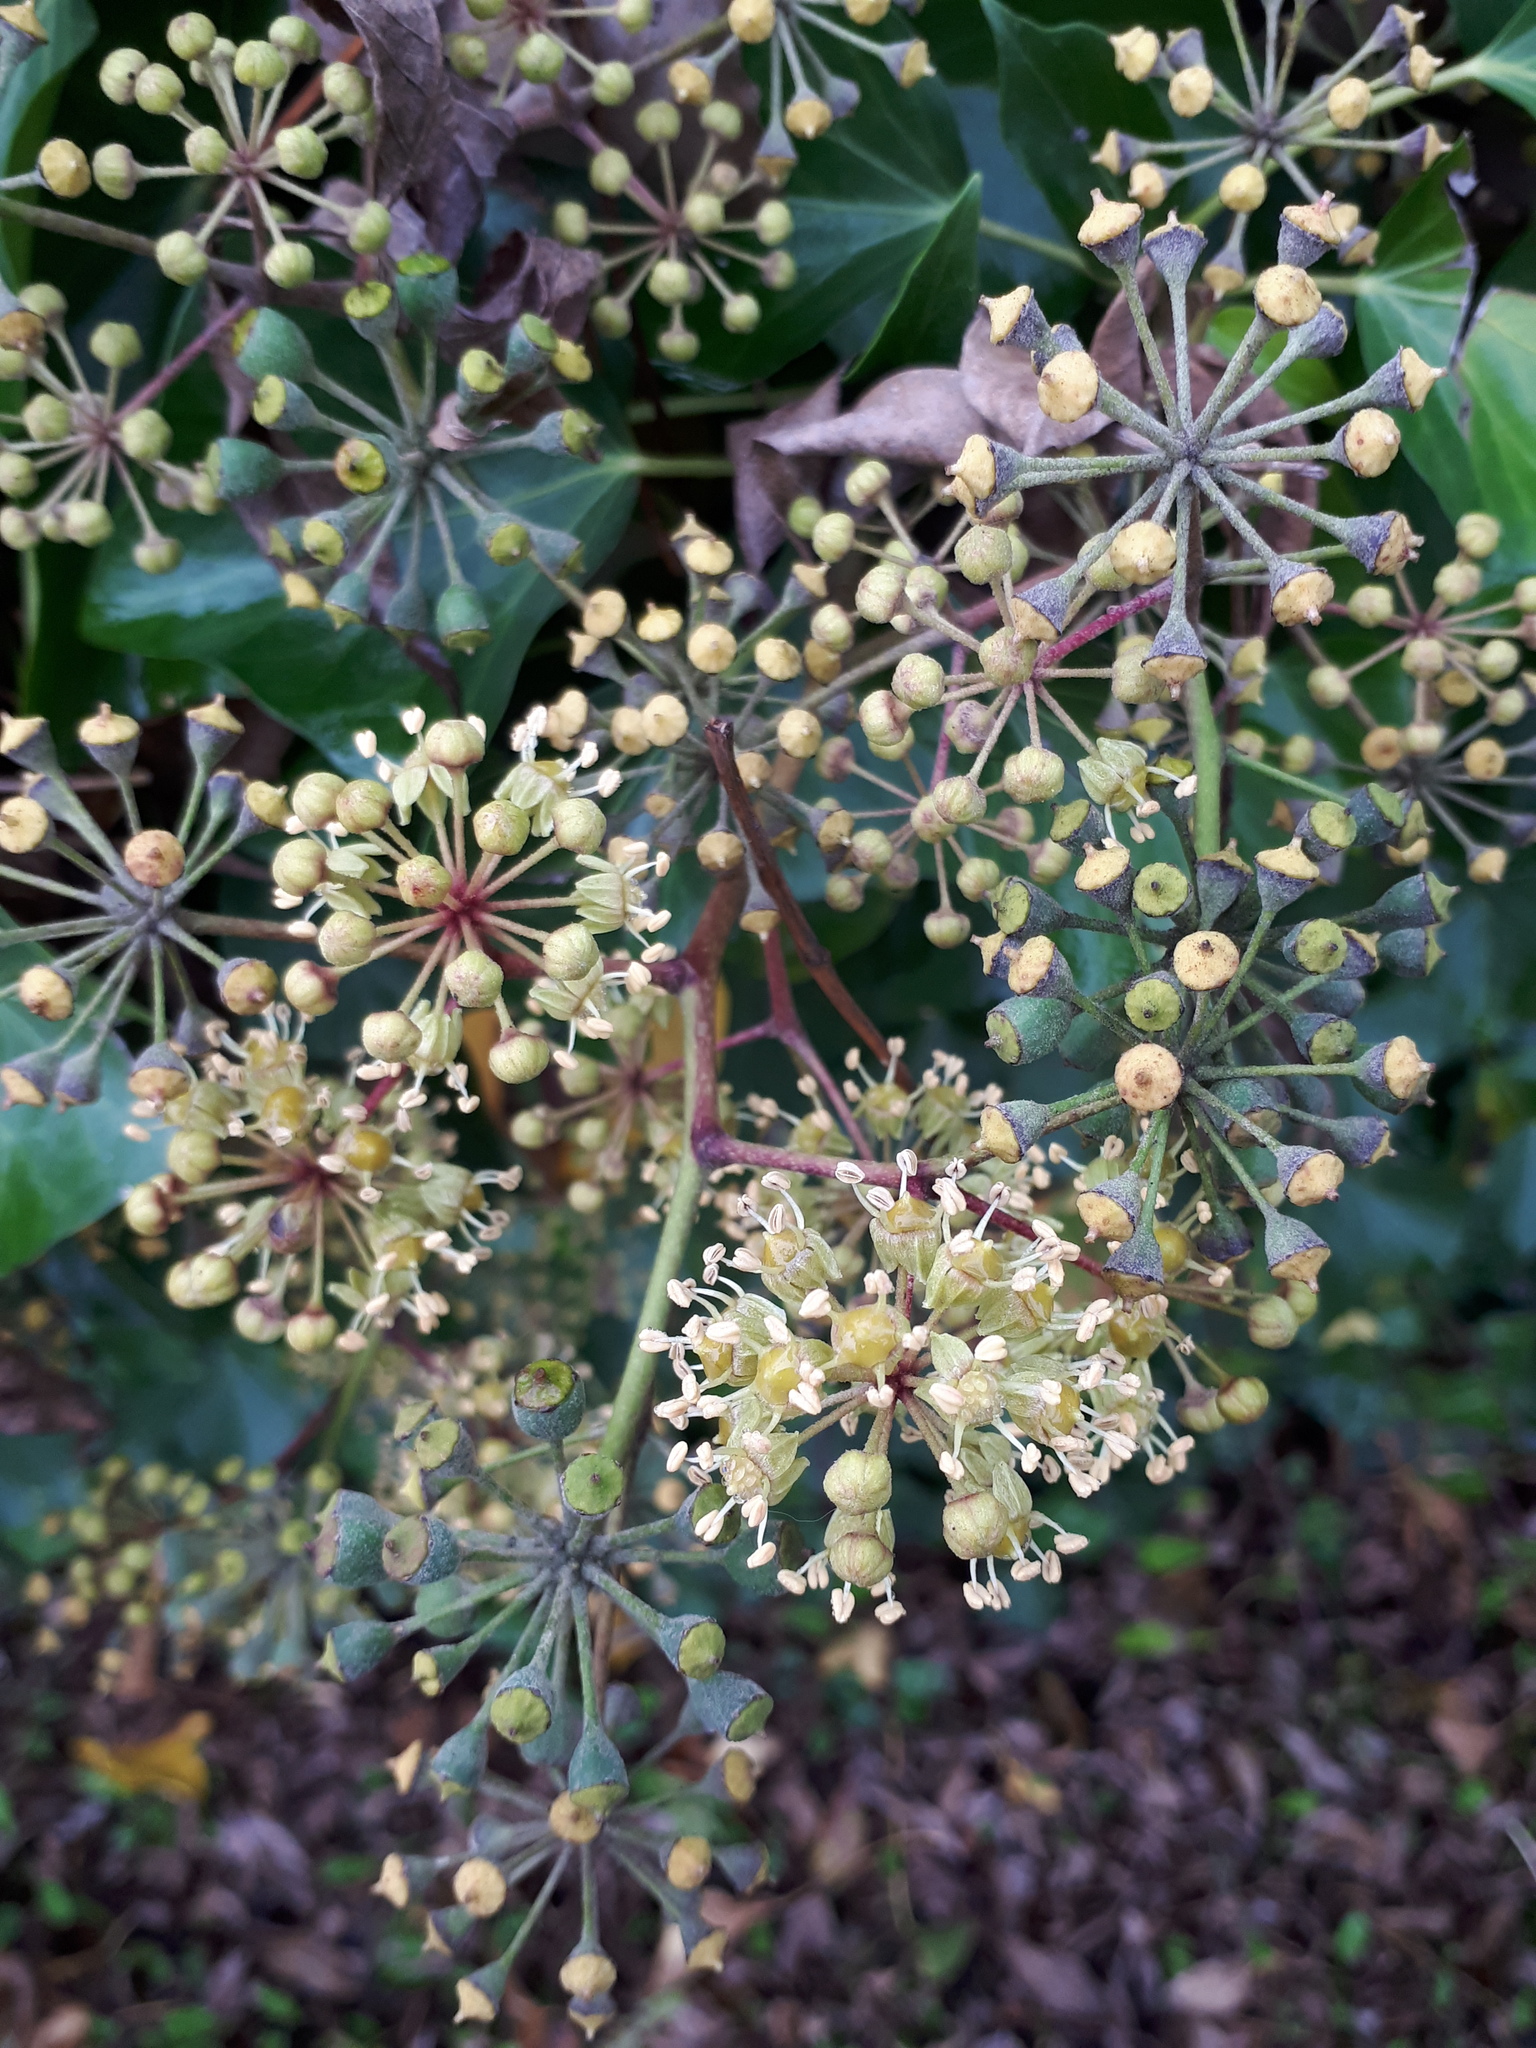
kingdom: Plantae
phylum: Tracheophyta
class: Magnoliopsida
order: Apiales
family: Araliaceae
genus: Hedera
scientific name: Hedera helix
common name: Ivy
